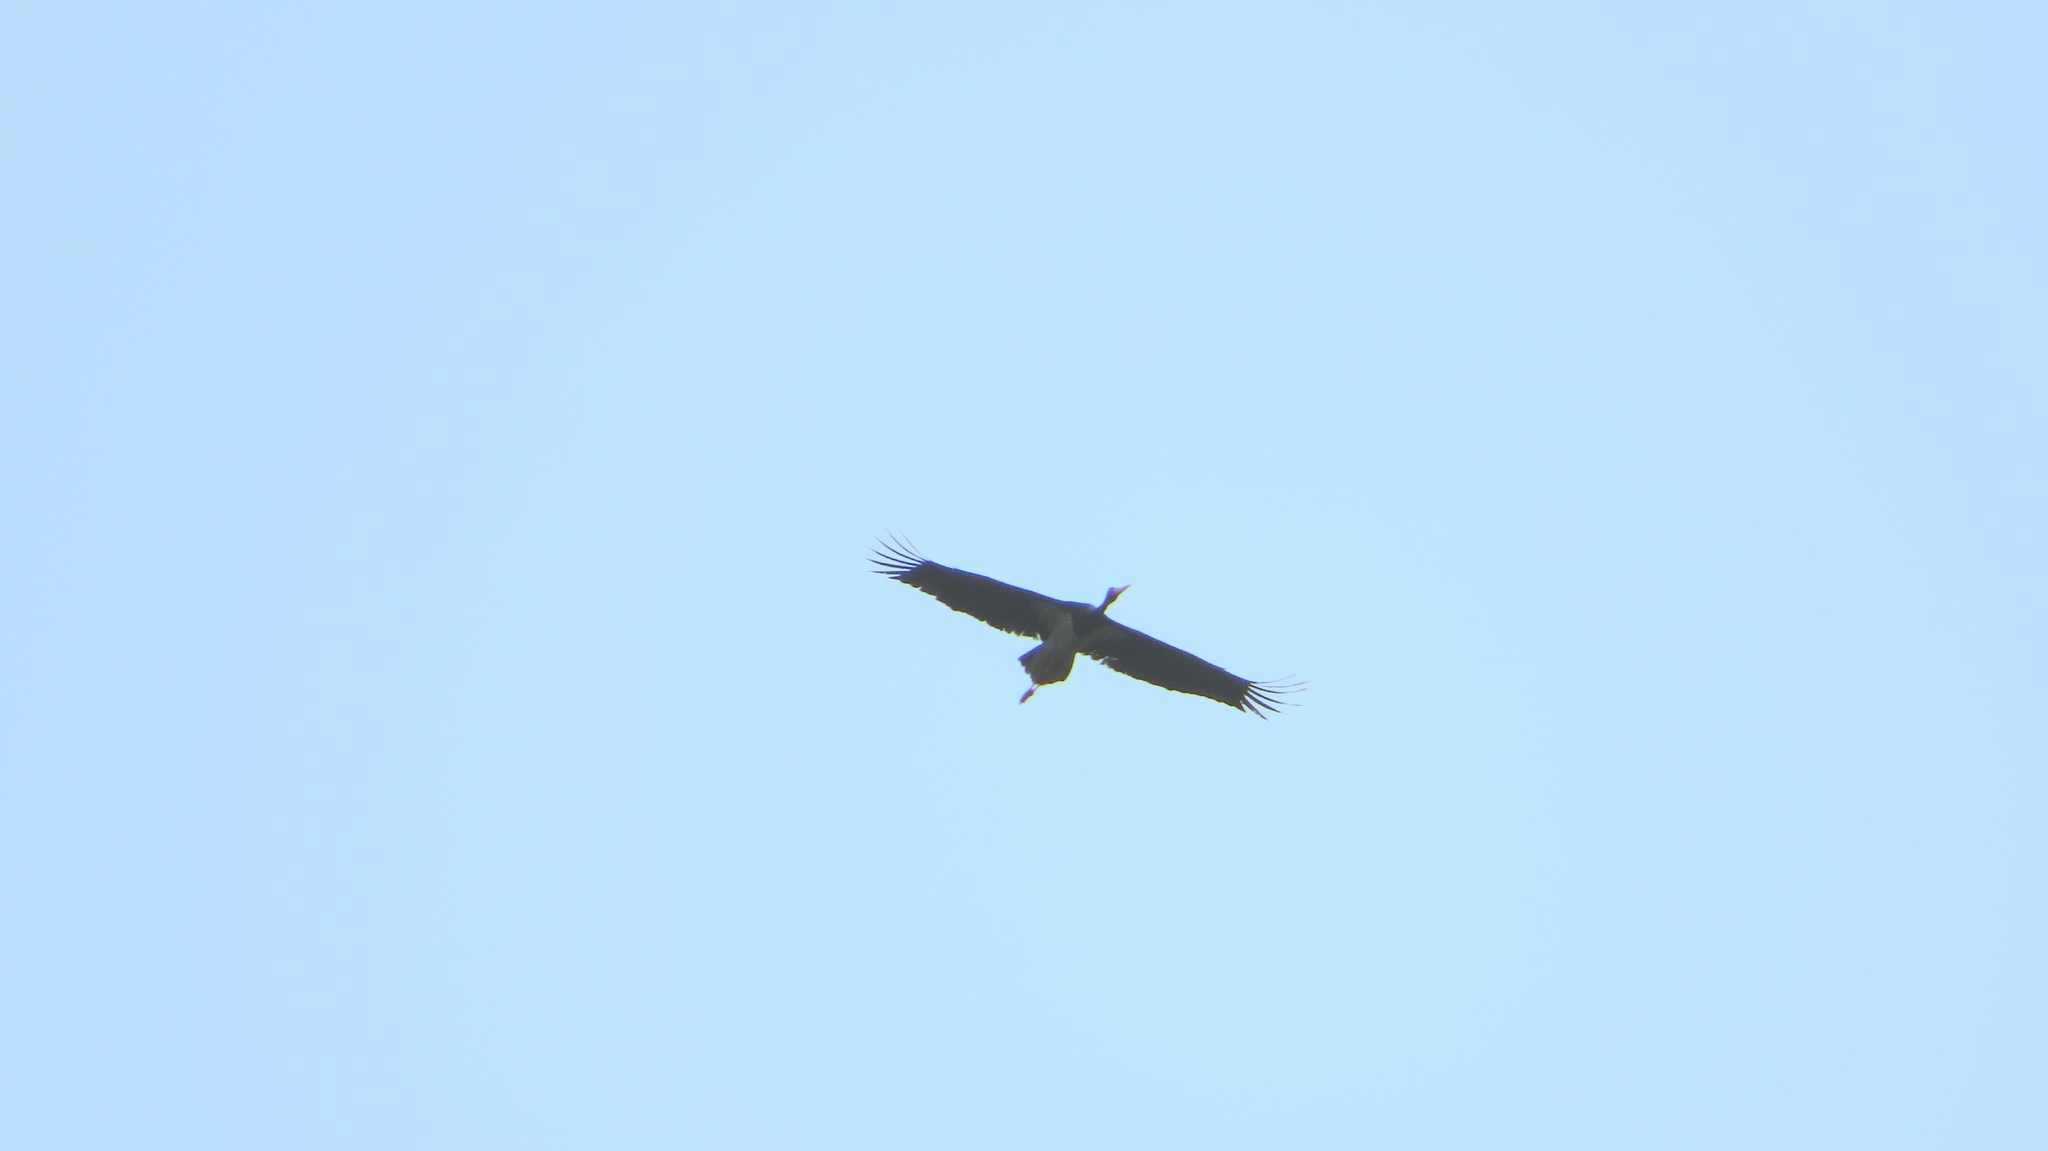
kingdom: Animalia
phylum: Chordata
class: Aves
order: Ciconiiformes
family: Ciconiidae
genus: Ciconia
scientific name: Ciconia nigra
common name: Black stork
